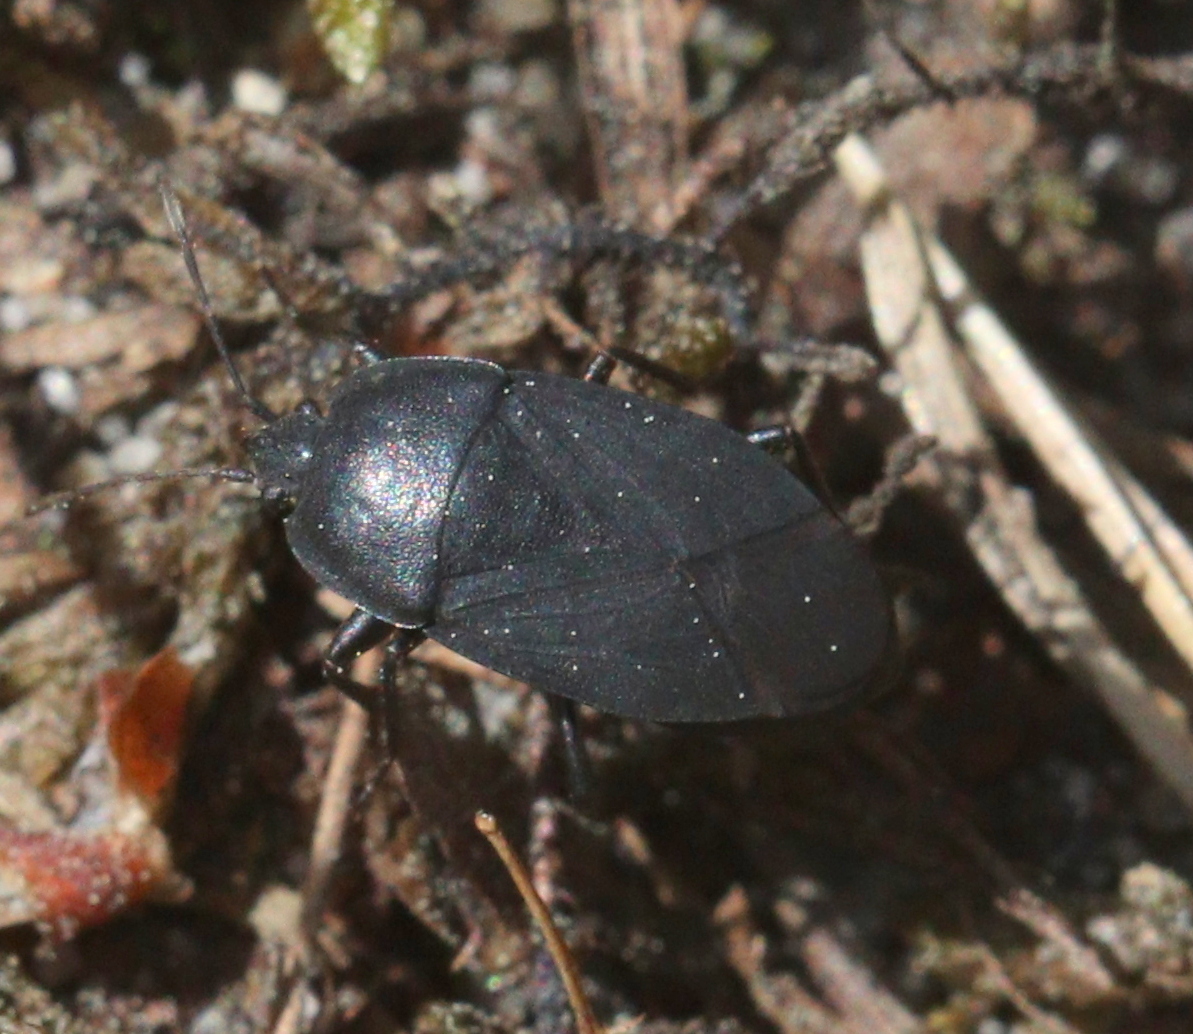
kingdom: Animalia
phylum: Arthropoda
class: Insecta
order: Hemiptera
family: Rhyparochromidae
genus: Aellopus
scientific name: Aellopus atratus
